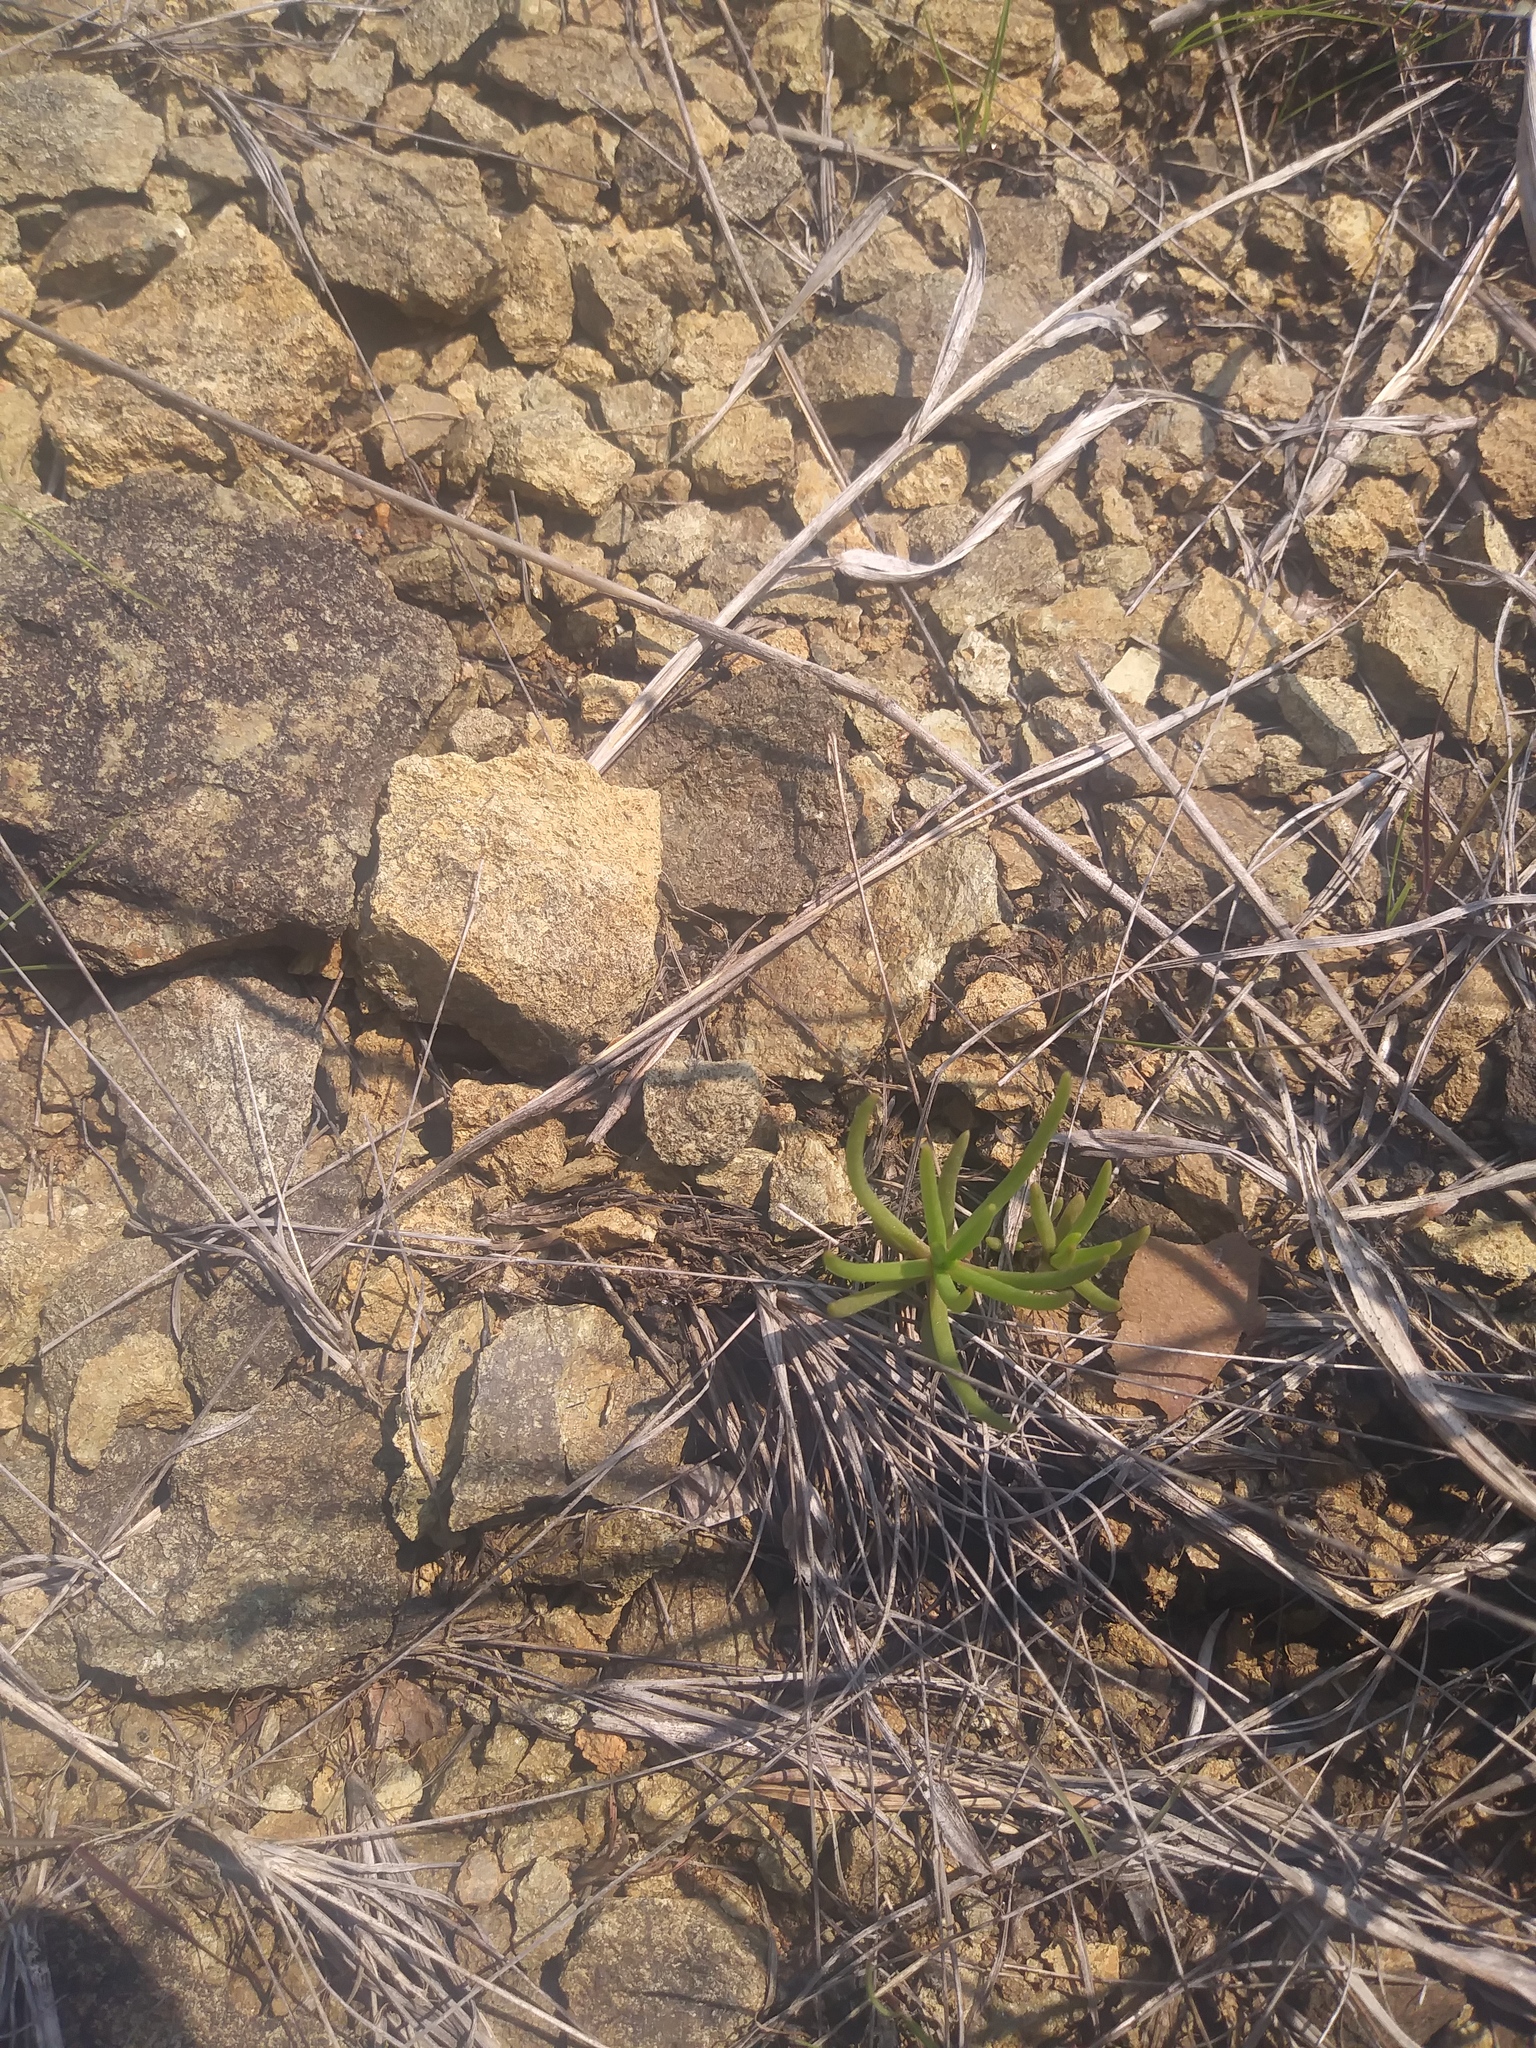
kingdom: Plantae
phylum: Tracheophyta
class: Magnoliopsida
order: Caryophyllales
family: Montiaceae
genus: Phemeranthus
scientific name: Phemeranthus teretifolius
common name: Quill fameflower
